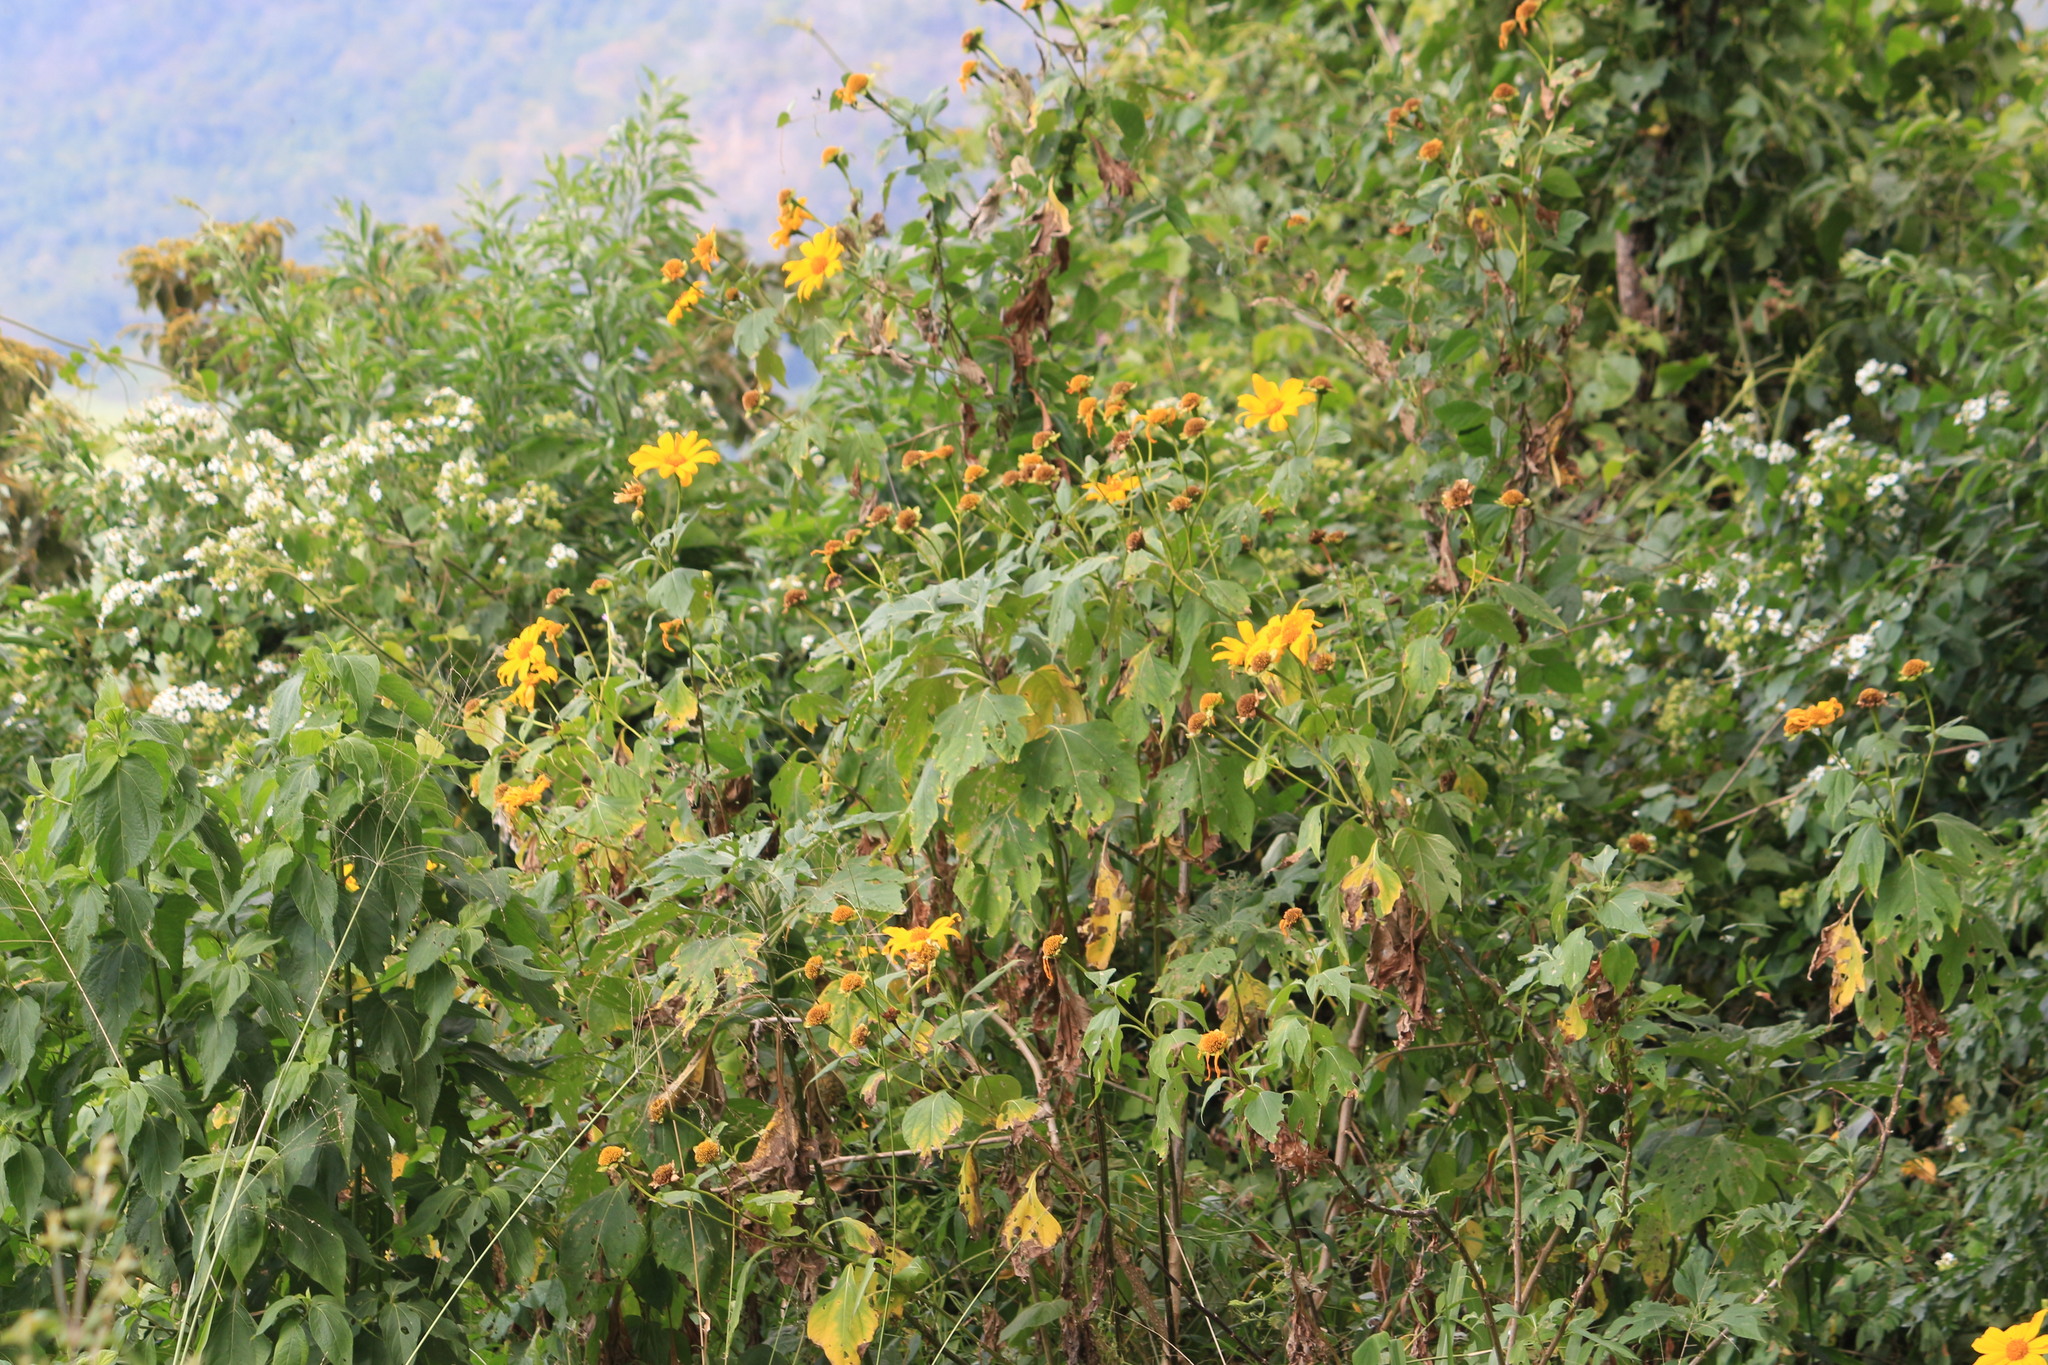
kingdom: Plantae
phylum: Tracheophyta
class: Magnoliopsida
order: Asterales
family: Asteraceae
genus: Tithonia
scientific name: Tithonia diversifolia
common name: Tree marigold
